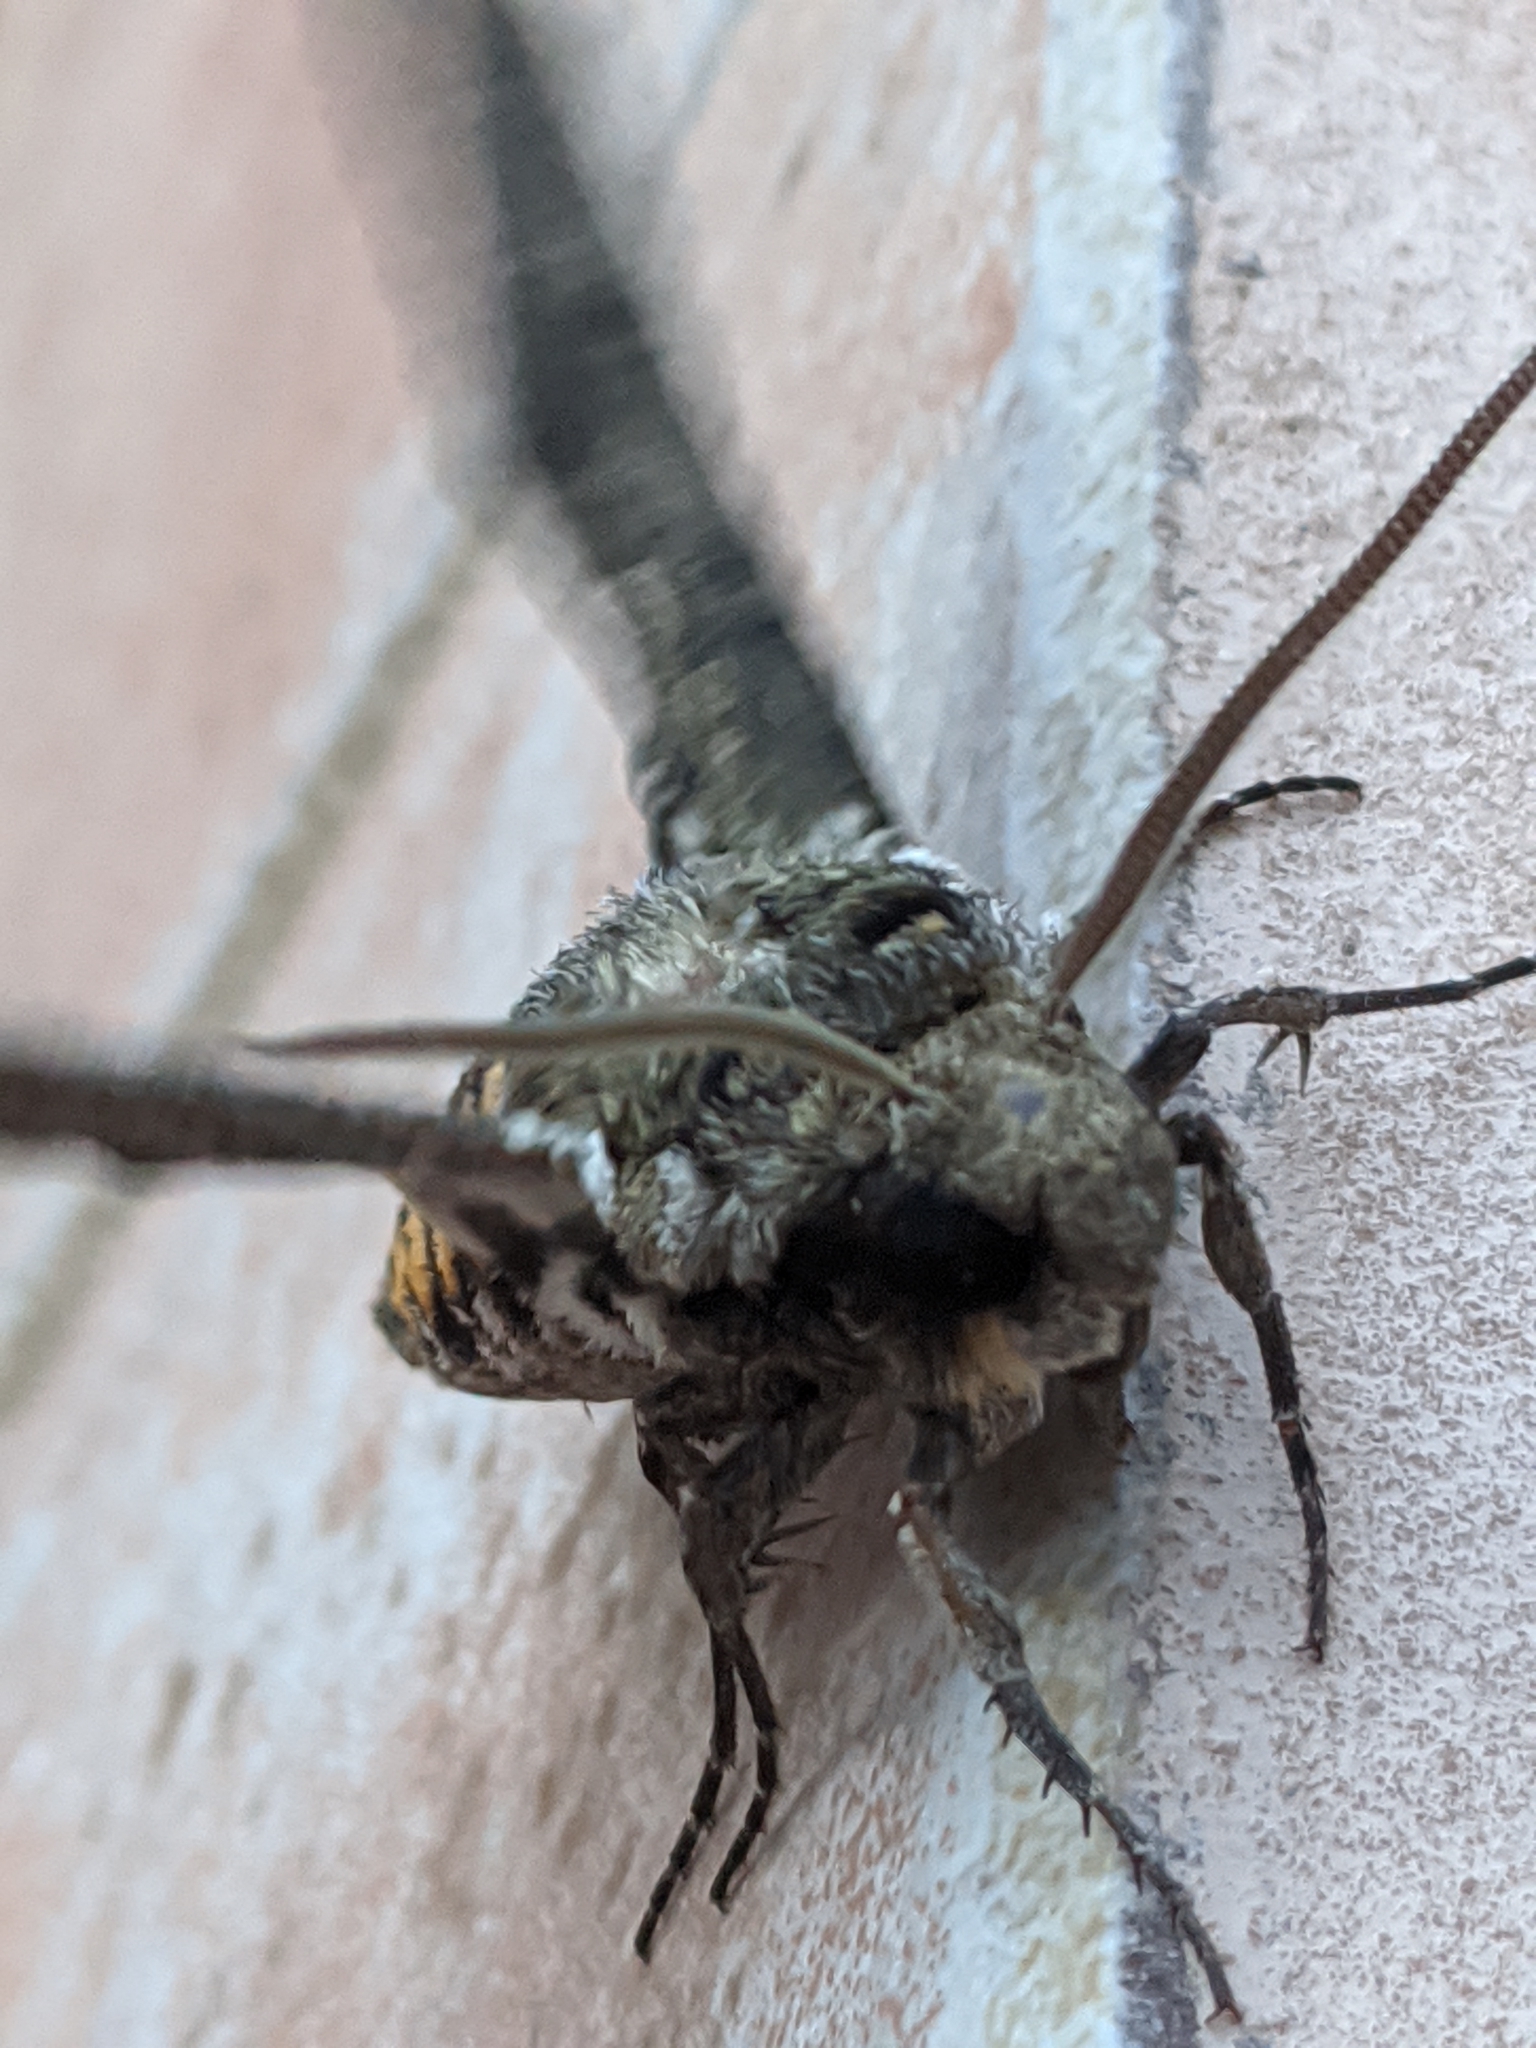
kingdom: Animalia
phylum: Arthropoda
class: Insecta
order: Lepidoptera
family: Sphingidae
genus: Manduca
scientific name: Manduca sexta
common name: Carolina sphinx
